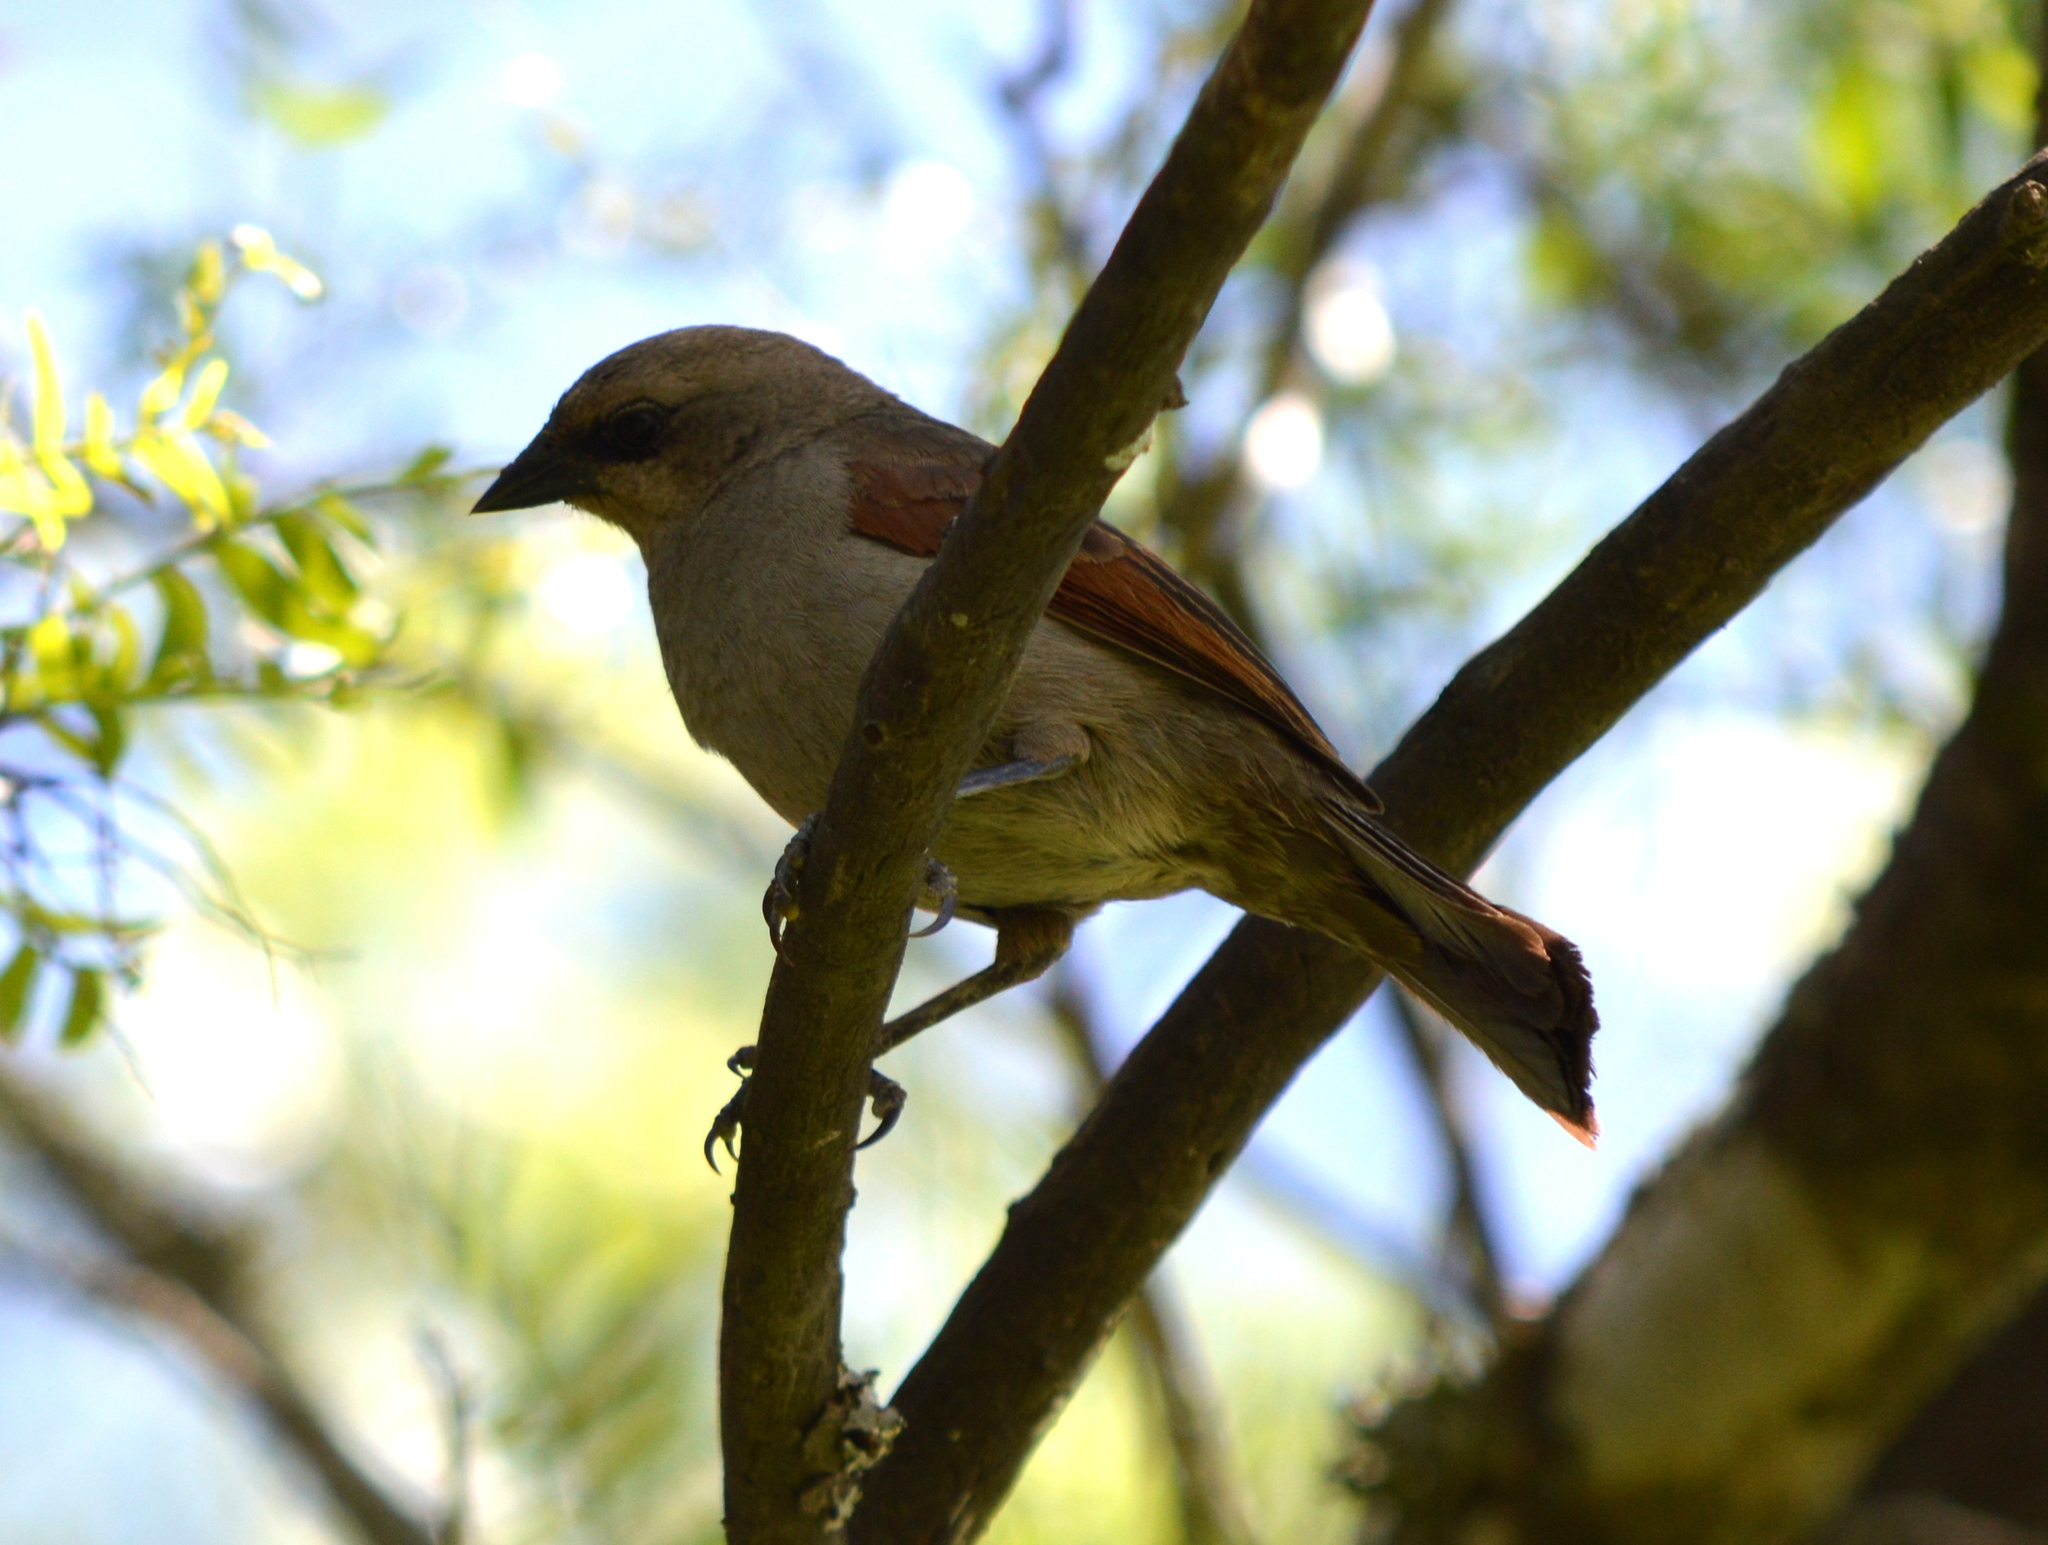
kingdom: Animalia
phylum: Chordata
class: Aves
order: Passeriformes
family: Icteridae
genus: Agelaioides
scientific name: Agelaioides badius
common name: Baywing
